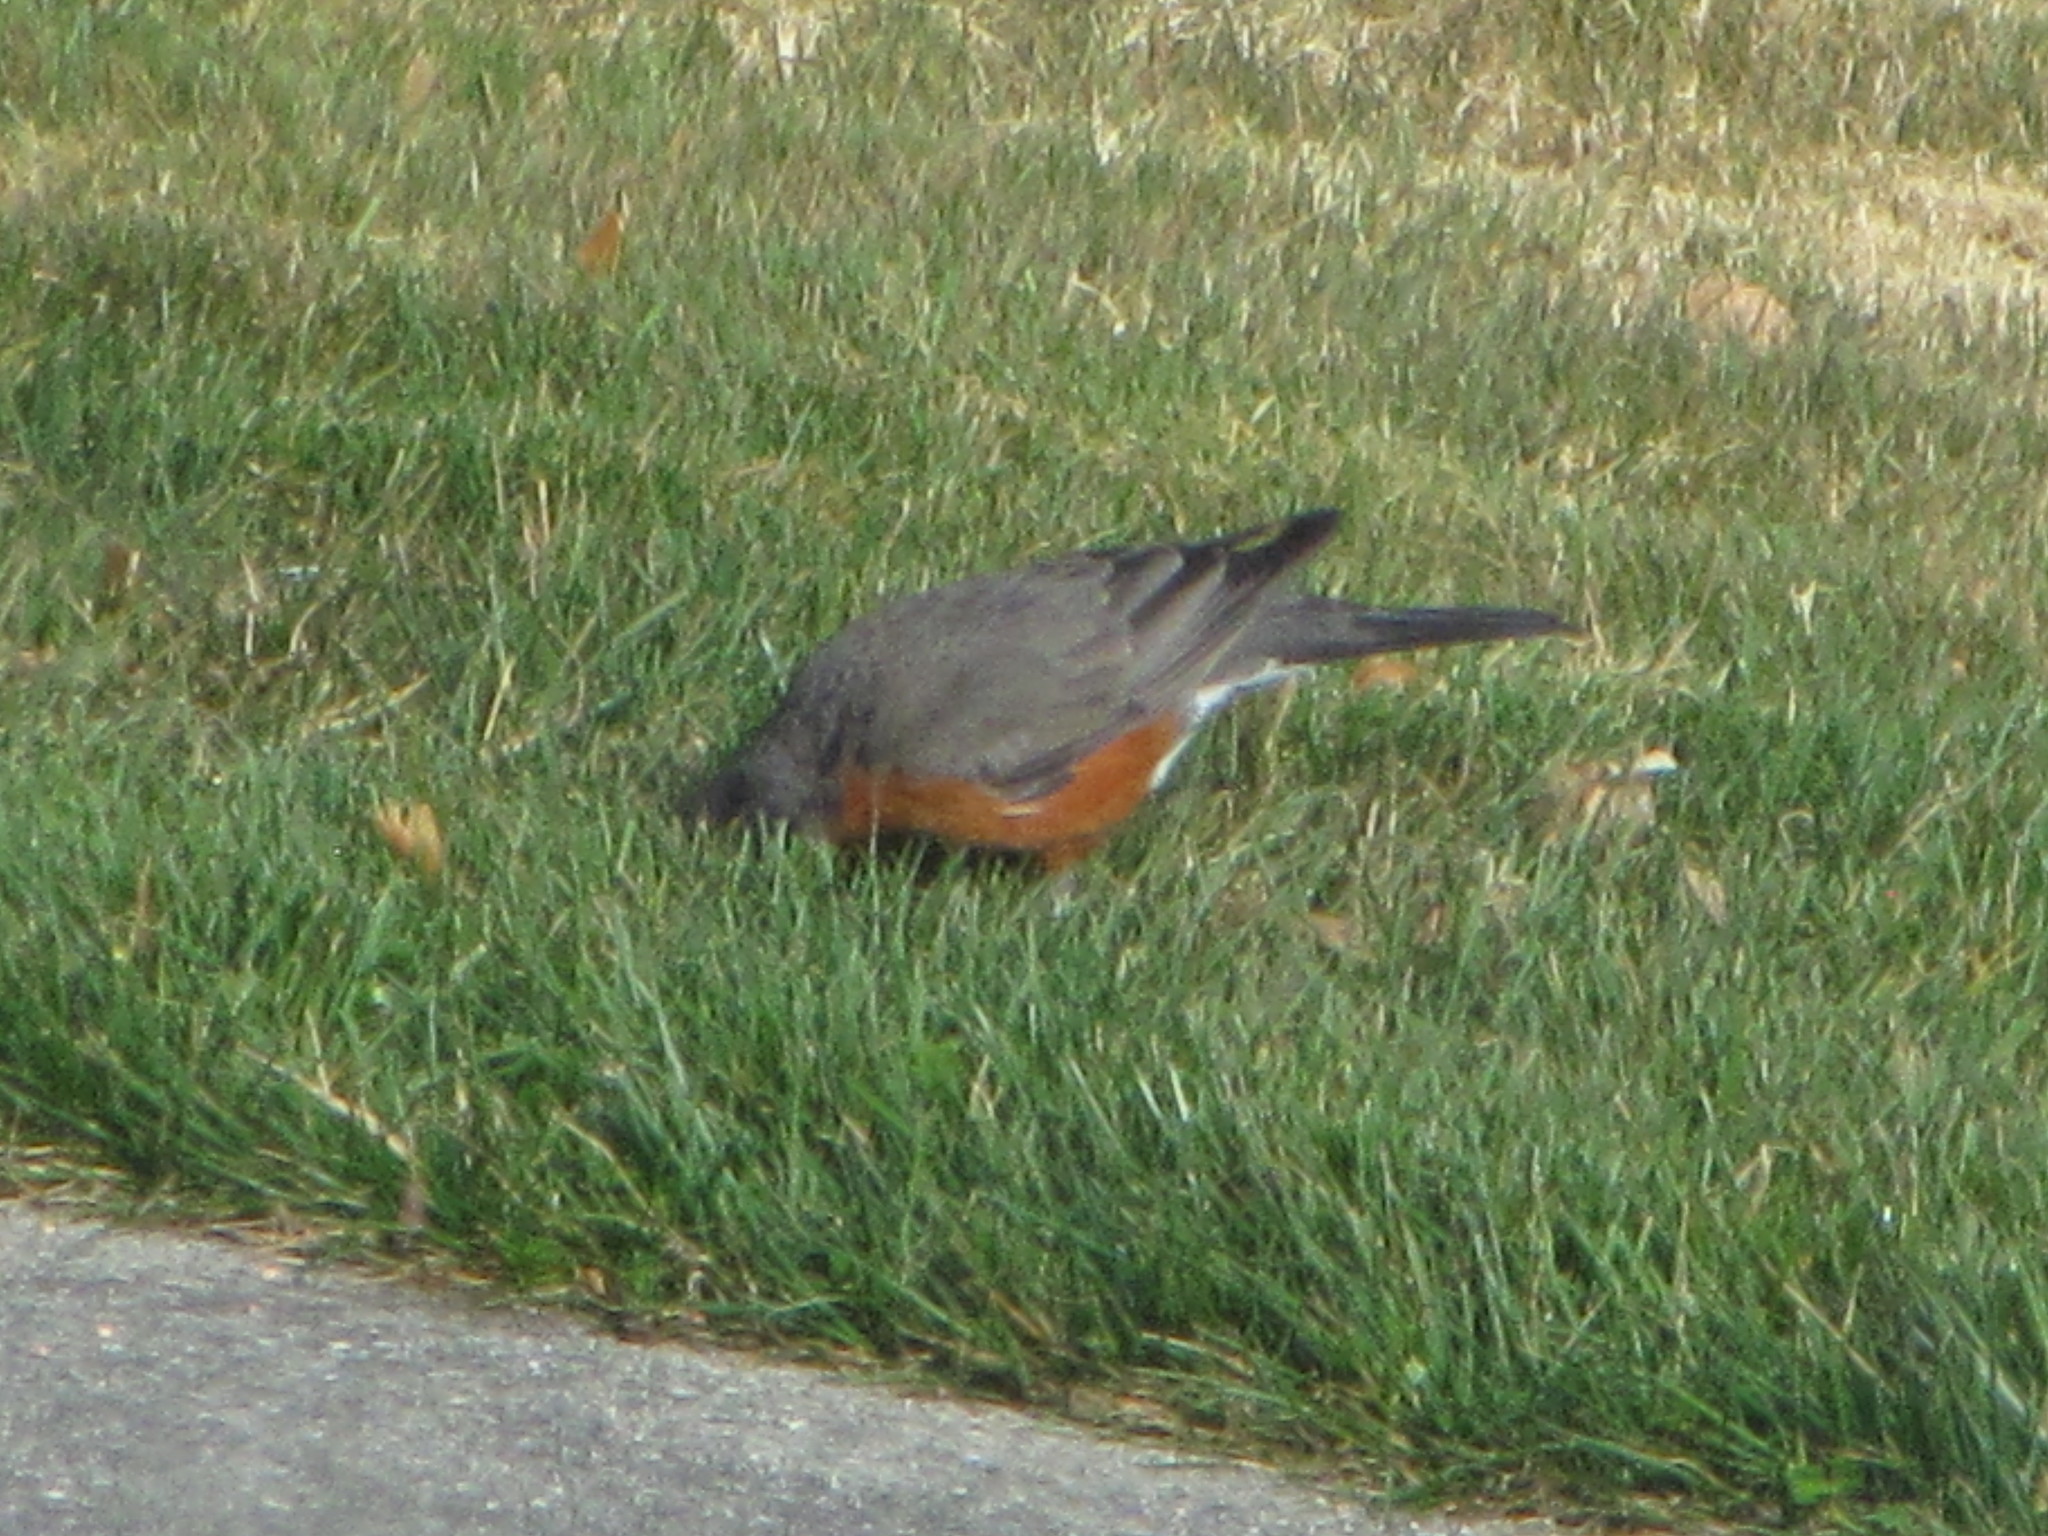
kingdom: Animalia
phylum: Chordata
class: Aves
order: Passeriformes
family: Turdidae
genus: Turdus
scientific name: Turdus migratorius
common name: American robin
